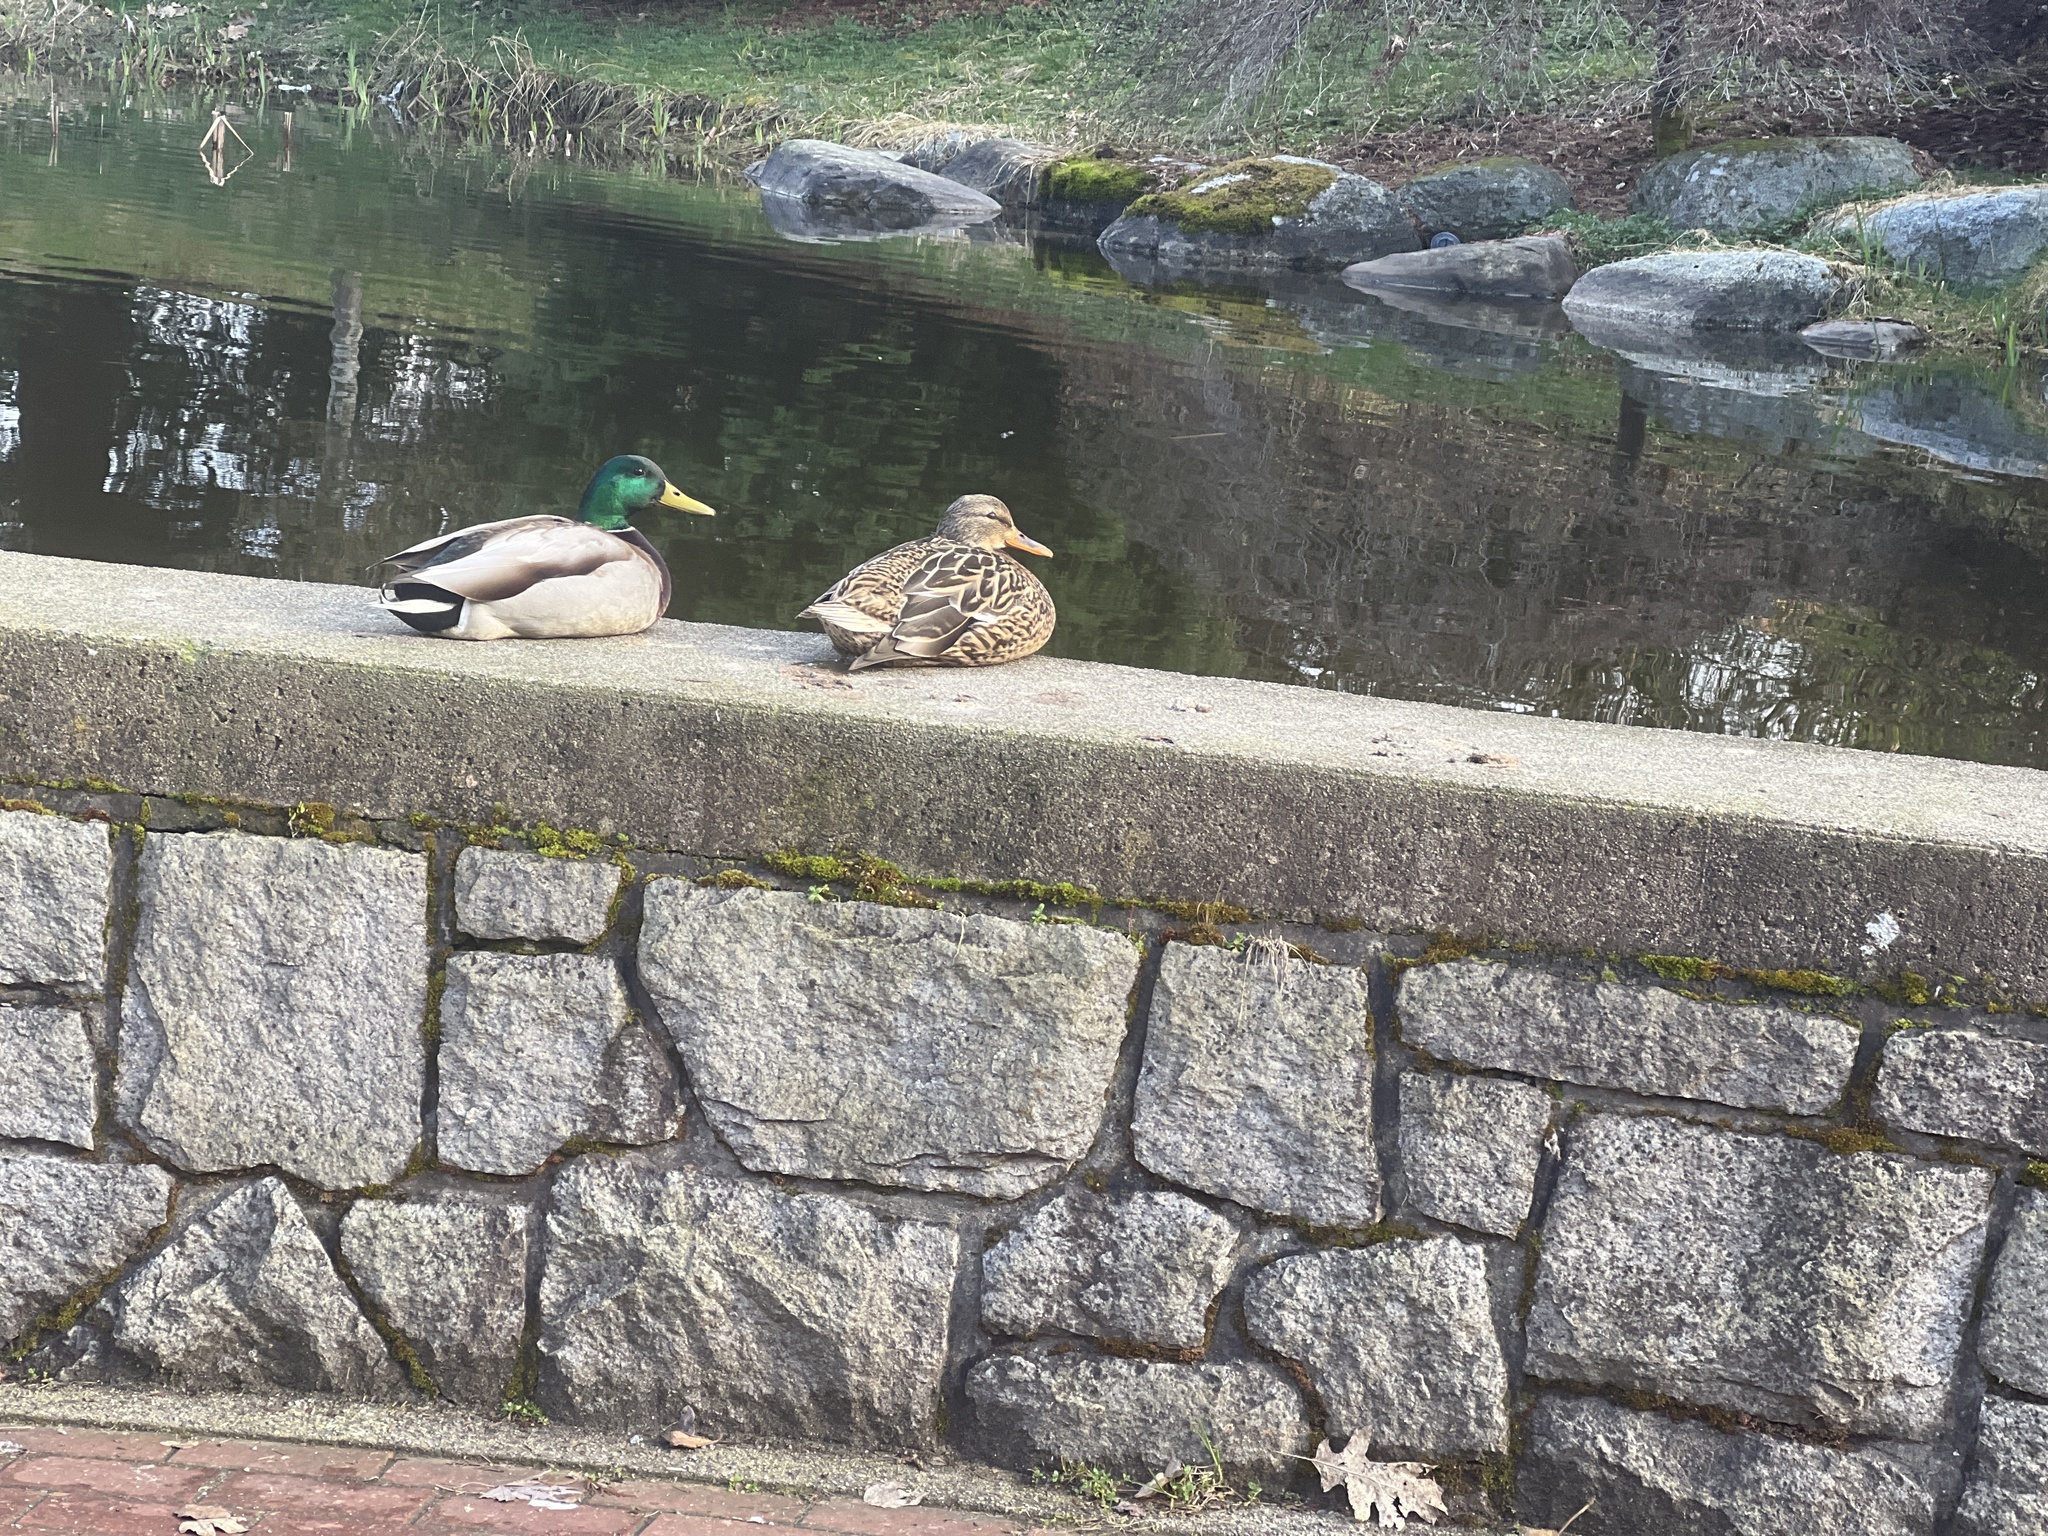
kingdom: Animalia
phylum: Chordata
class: Aves
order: Anseriformes
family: Anatidae
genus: Anas
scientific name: Anas platyrhynchos
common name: Mallard
